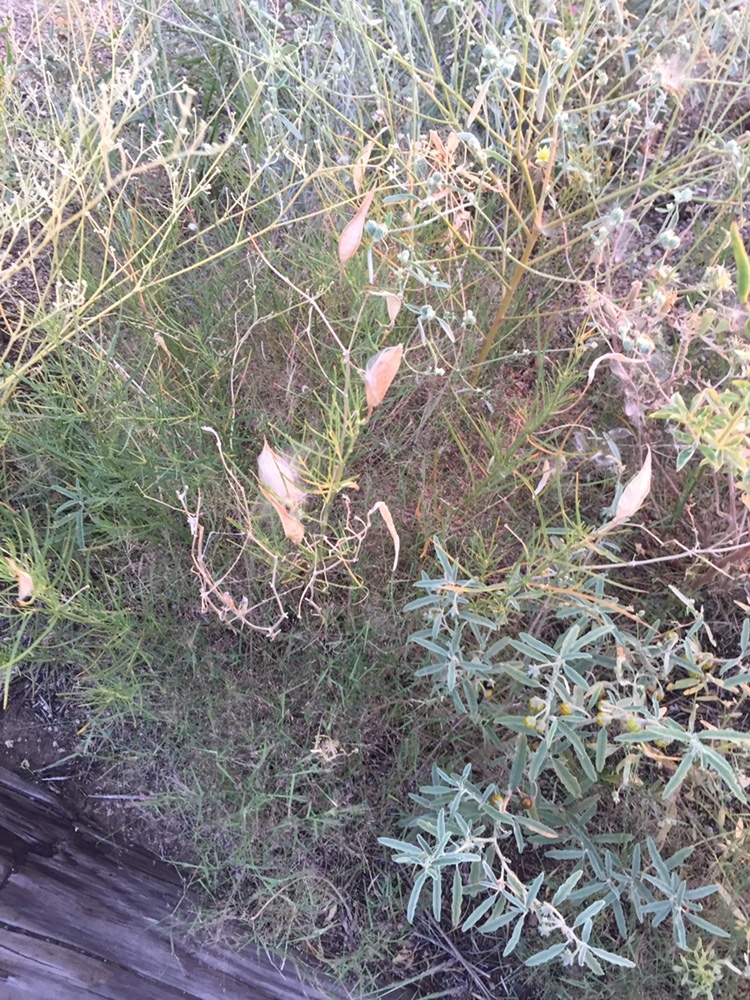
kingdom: Plantae
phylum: Tracheophyta
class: Magnoliopsida
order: Gentianales
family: Apocynaceae
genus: Asclepias
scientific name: Asclepias subverticillata
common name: Horsetail milkweed
